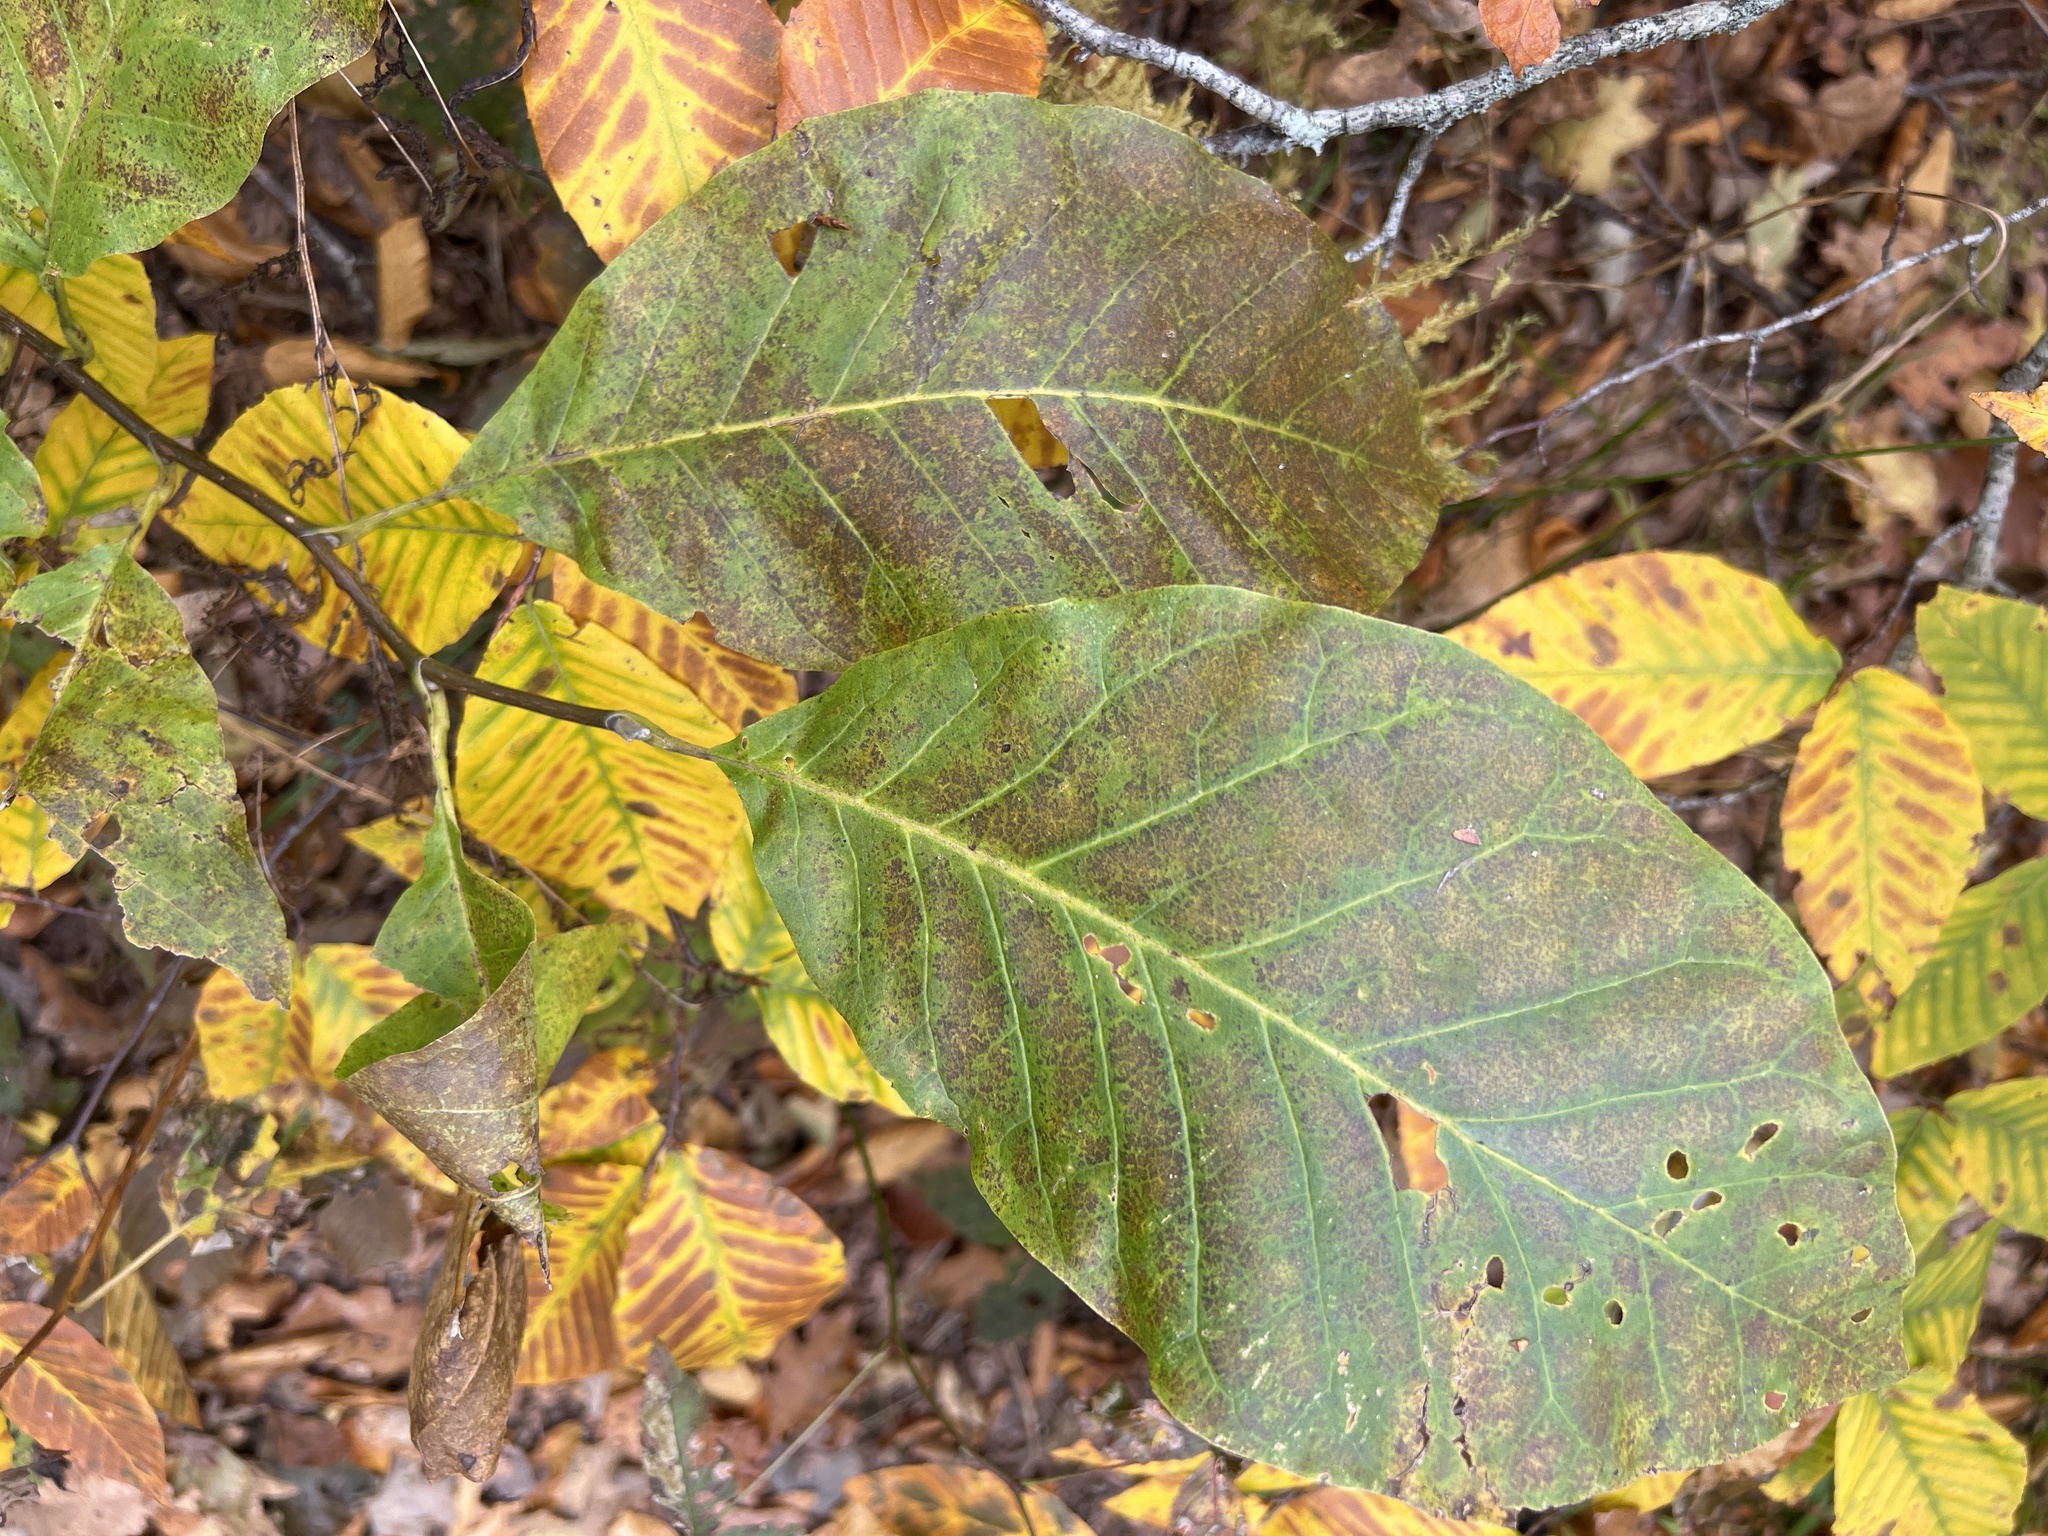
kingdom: Plantae
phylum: Tracheophyta
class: Magnoliopsida
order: Magnoliales
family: Magnoliaceae
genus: Magnolia
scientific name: Magnolia acuminata
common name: Cucumber magnolia
